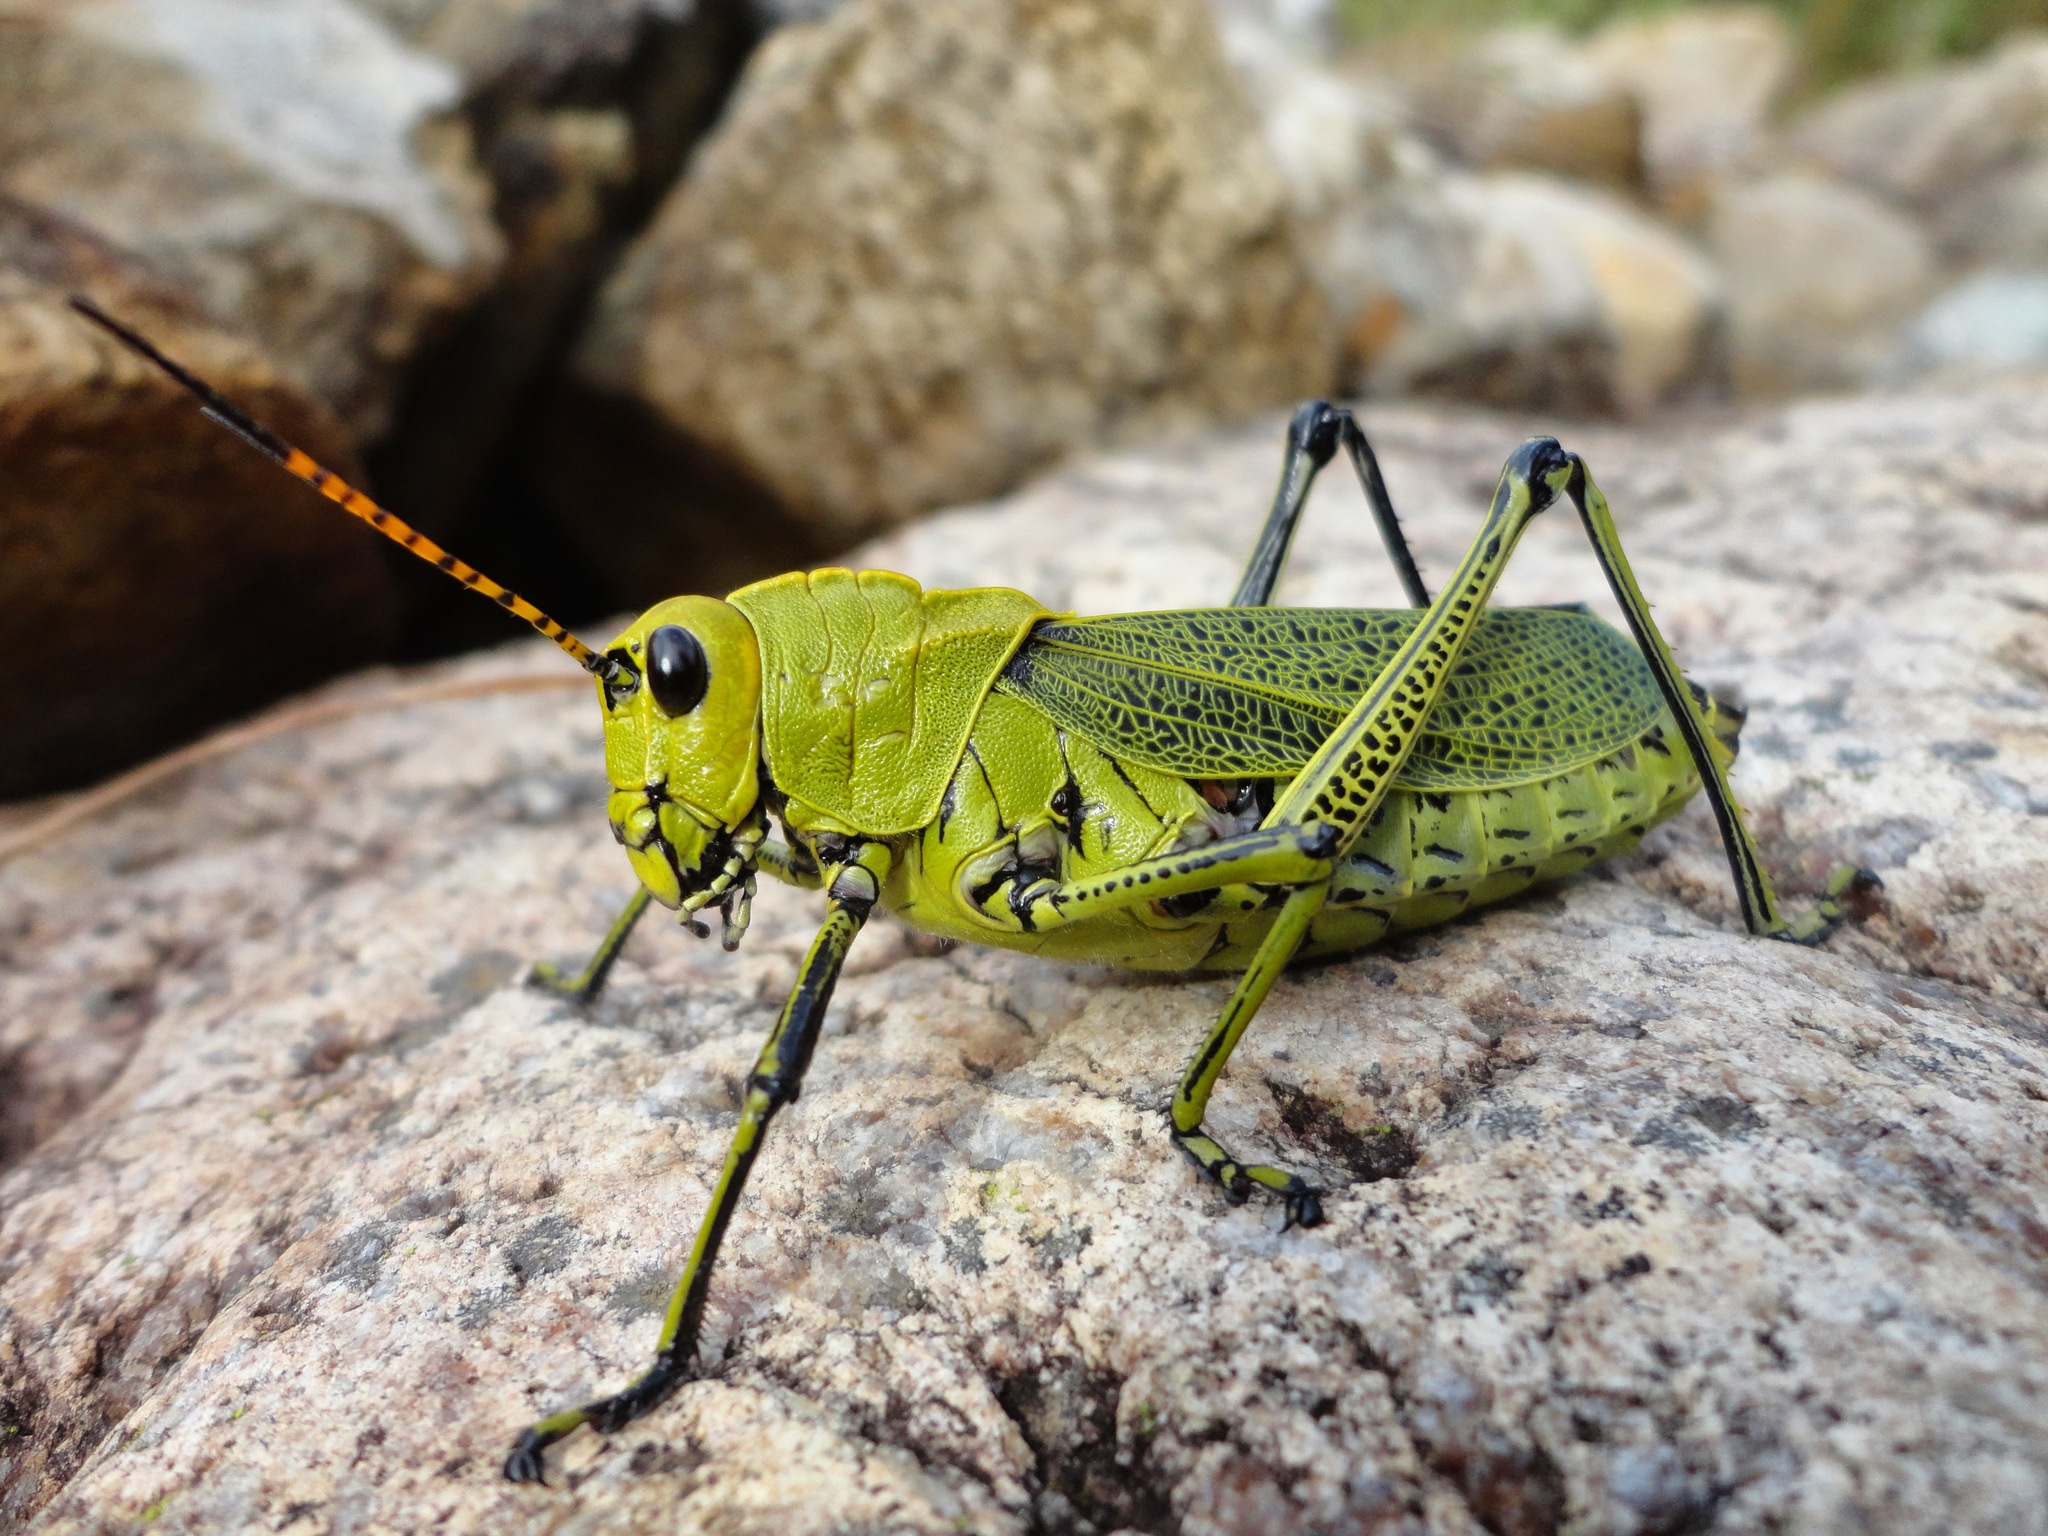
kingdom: Animalia
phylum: Arthropoda
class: Insecta
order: Orthoptera
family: Romaleidae
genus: Romalea
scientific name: Romalea
